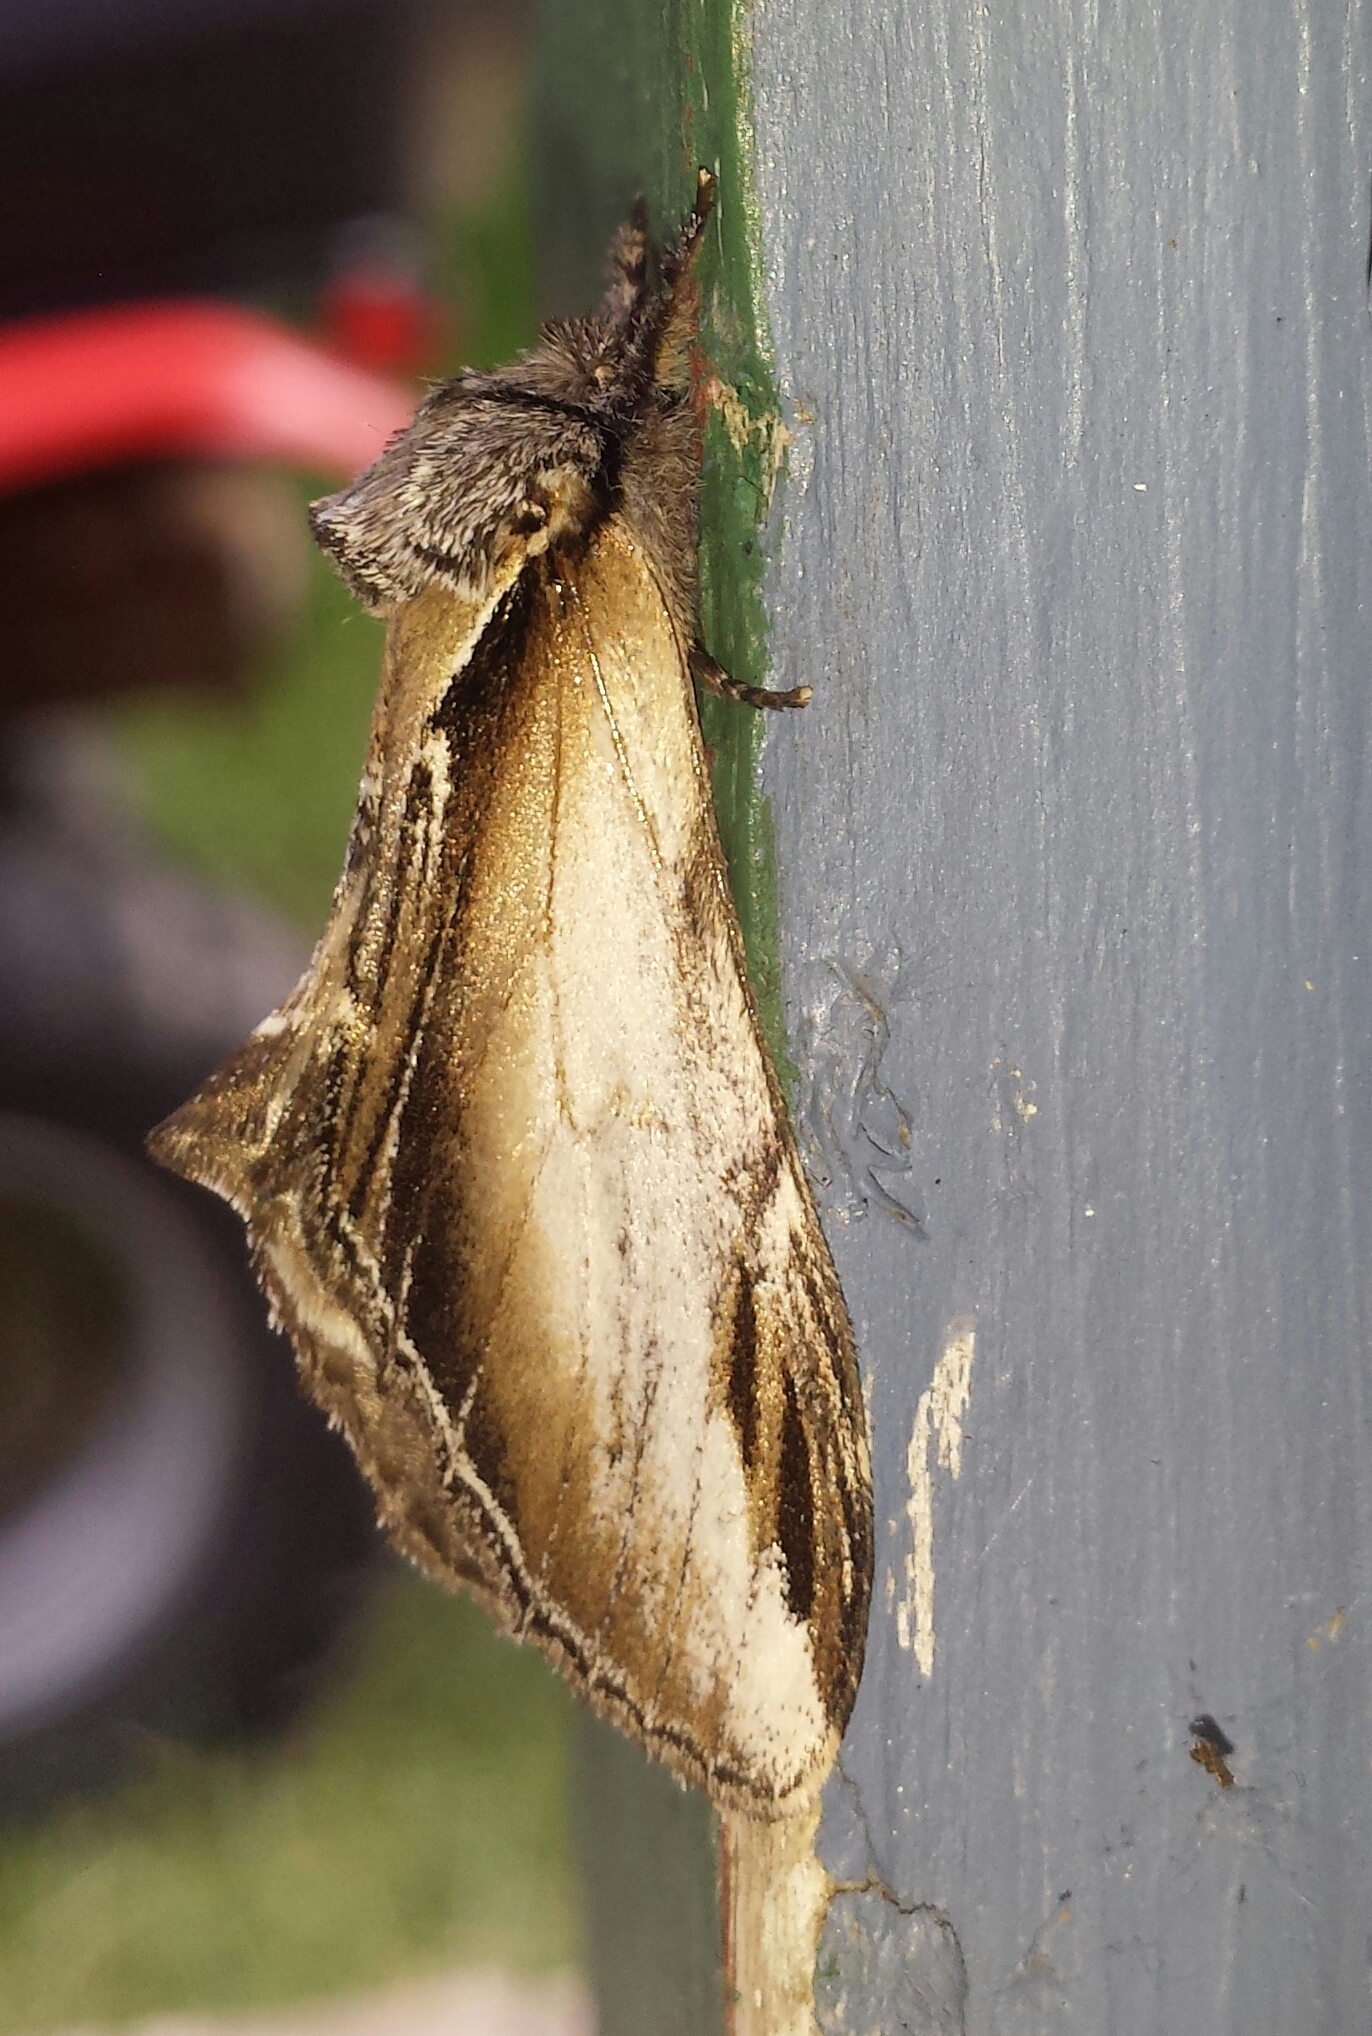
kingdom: Animalia
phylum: Arthropoda
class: Insecta
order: Lepidoptera
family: Notodontidae
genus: Pheosia
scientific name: Pheosia rimosa
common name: Black-rimmed prominent
